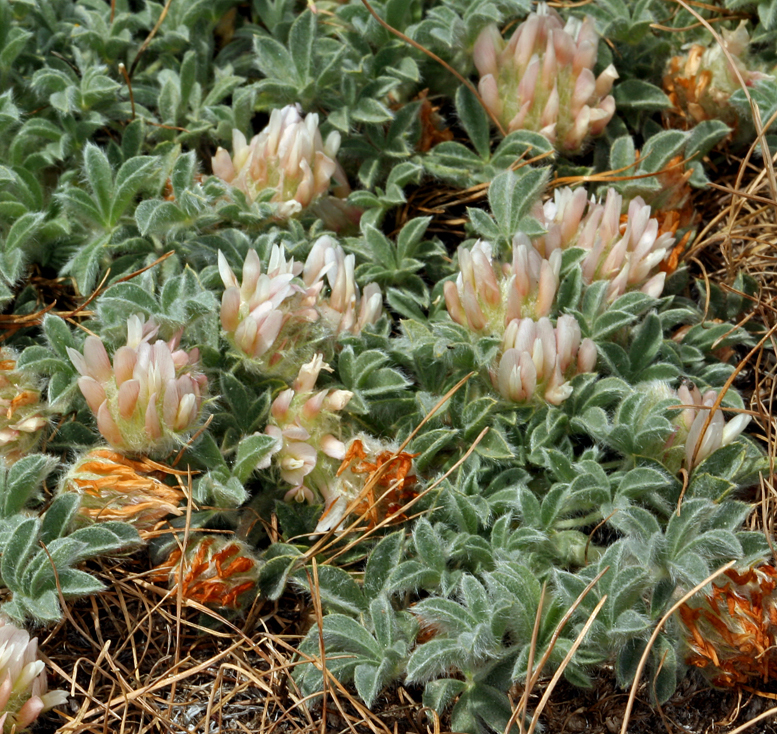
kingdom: Plantae
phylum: Tracheophyta
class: Magnoliopsida
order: Fabales
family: Fabaceae
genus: Trifolium
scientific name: Trifolium andersonii
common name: Anderson's clover
